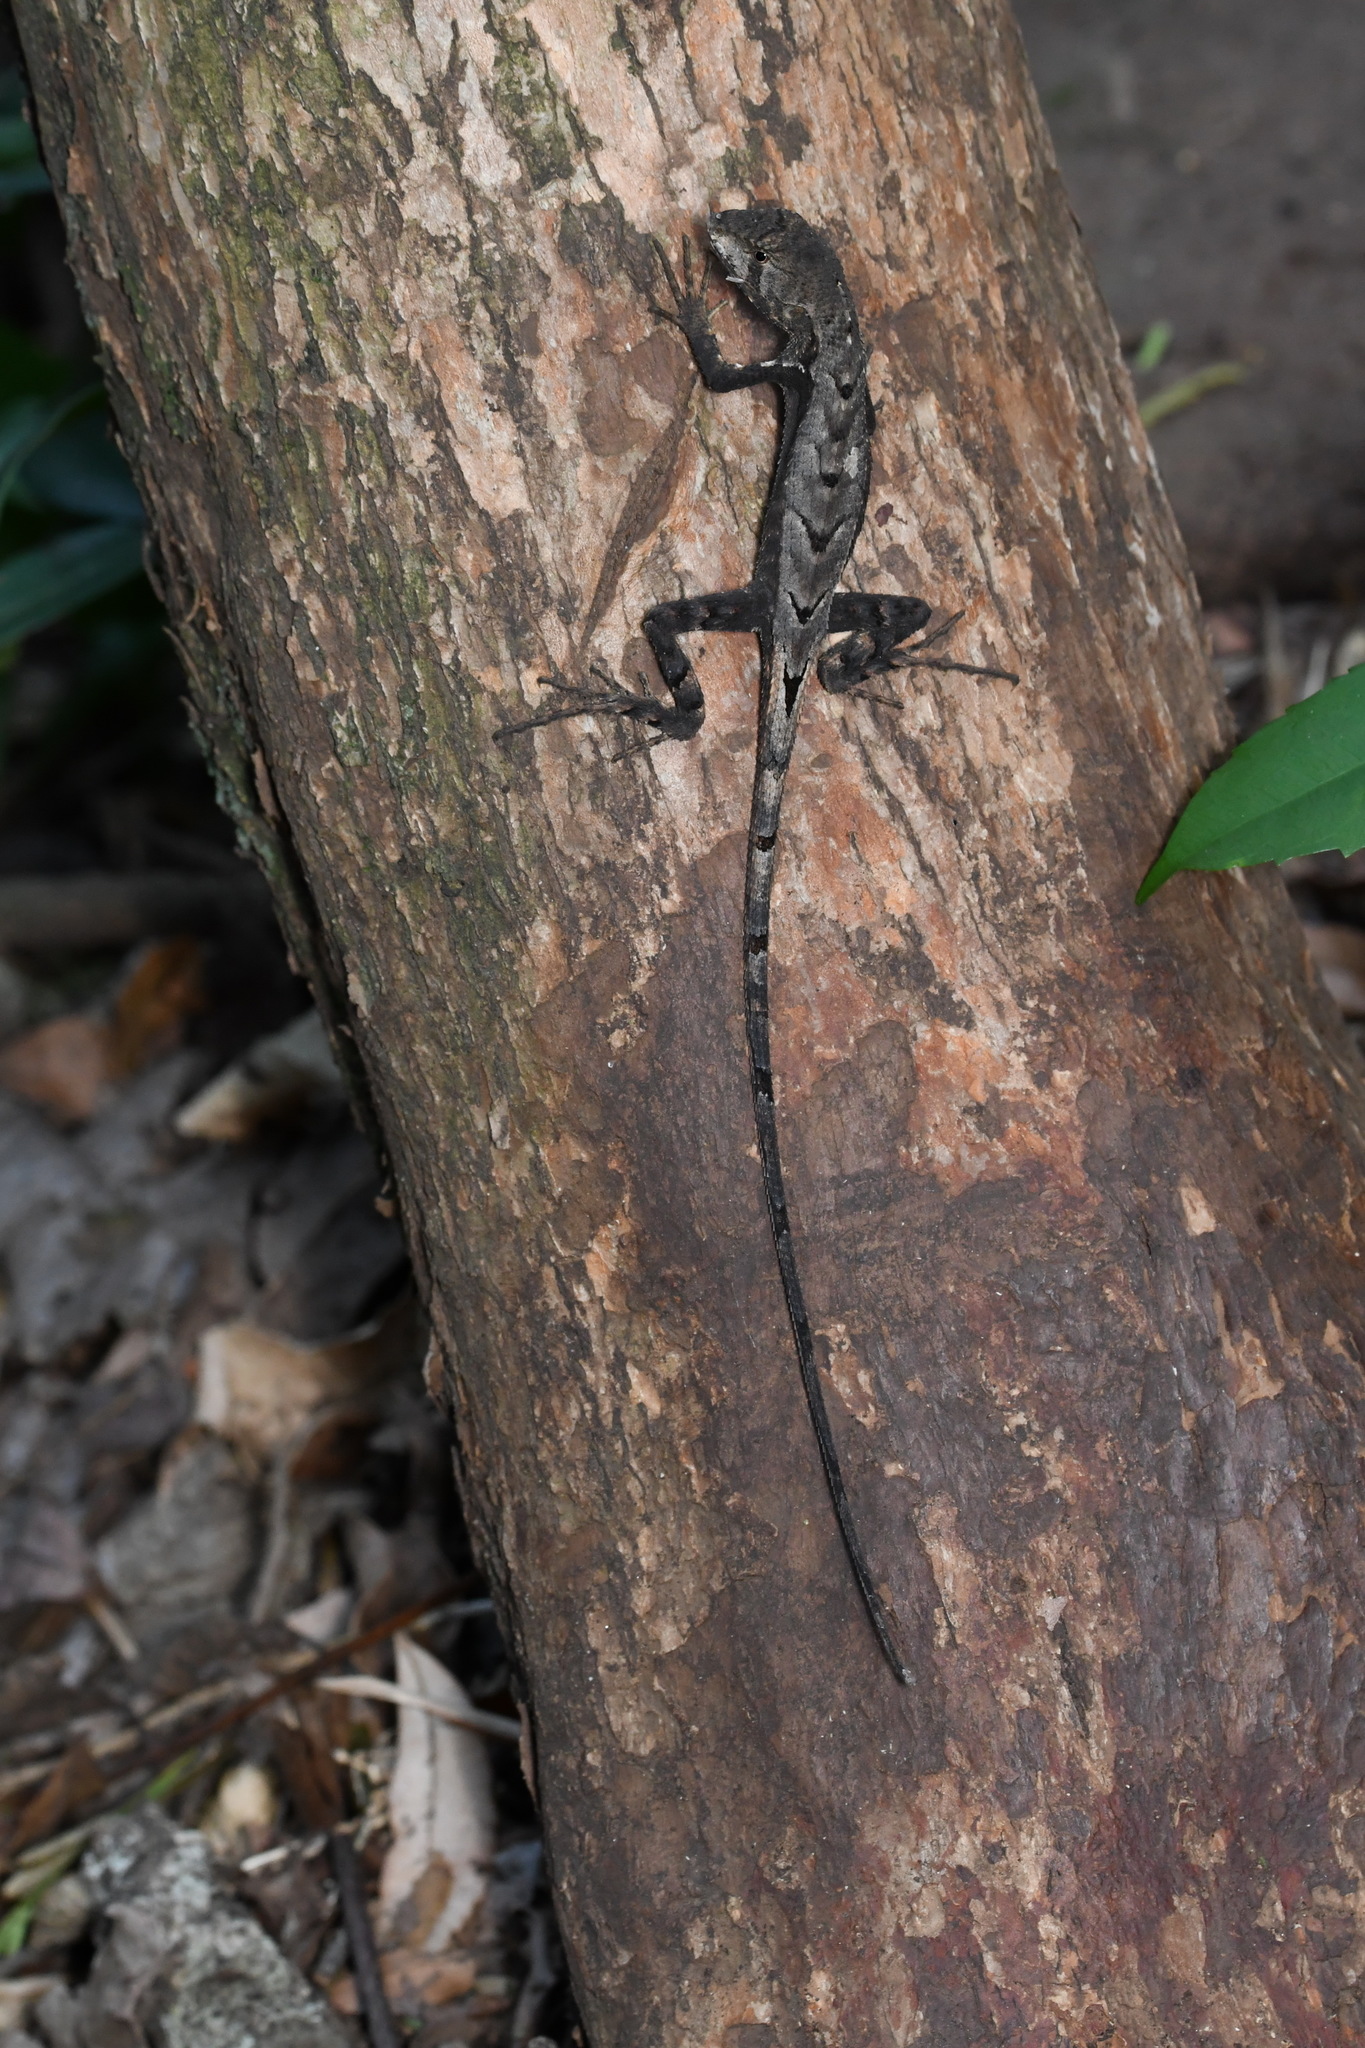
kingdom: Animalia
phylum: Chordata
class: Squamata
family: Tropiduridae
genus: Stenocercus
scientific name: Stenocercus caducus
